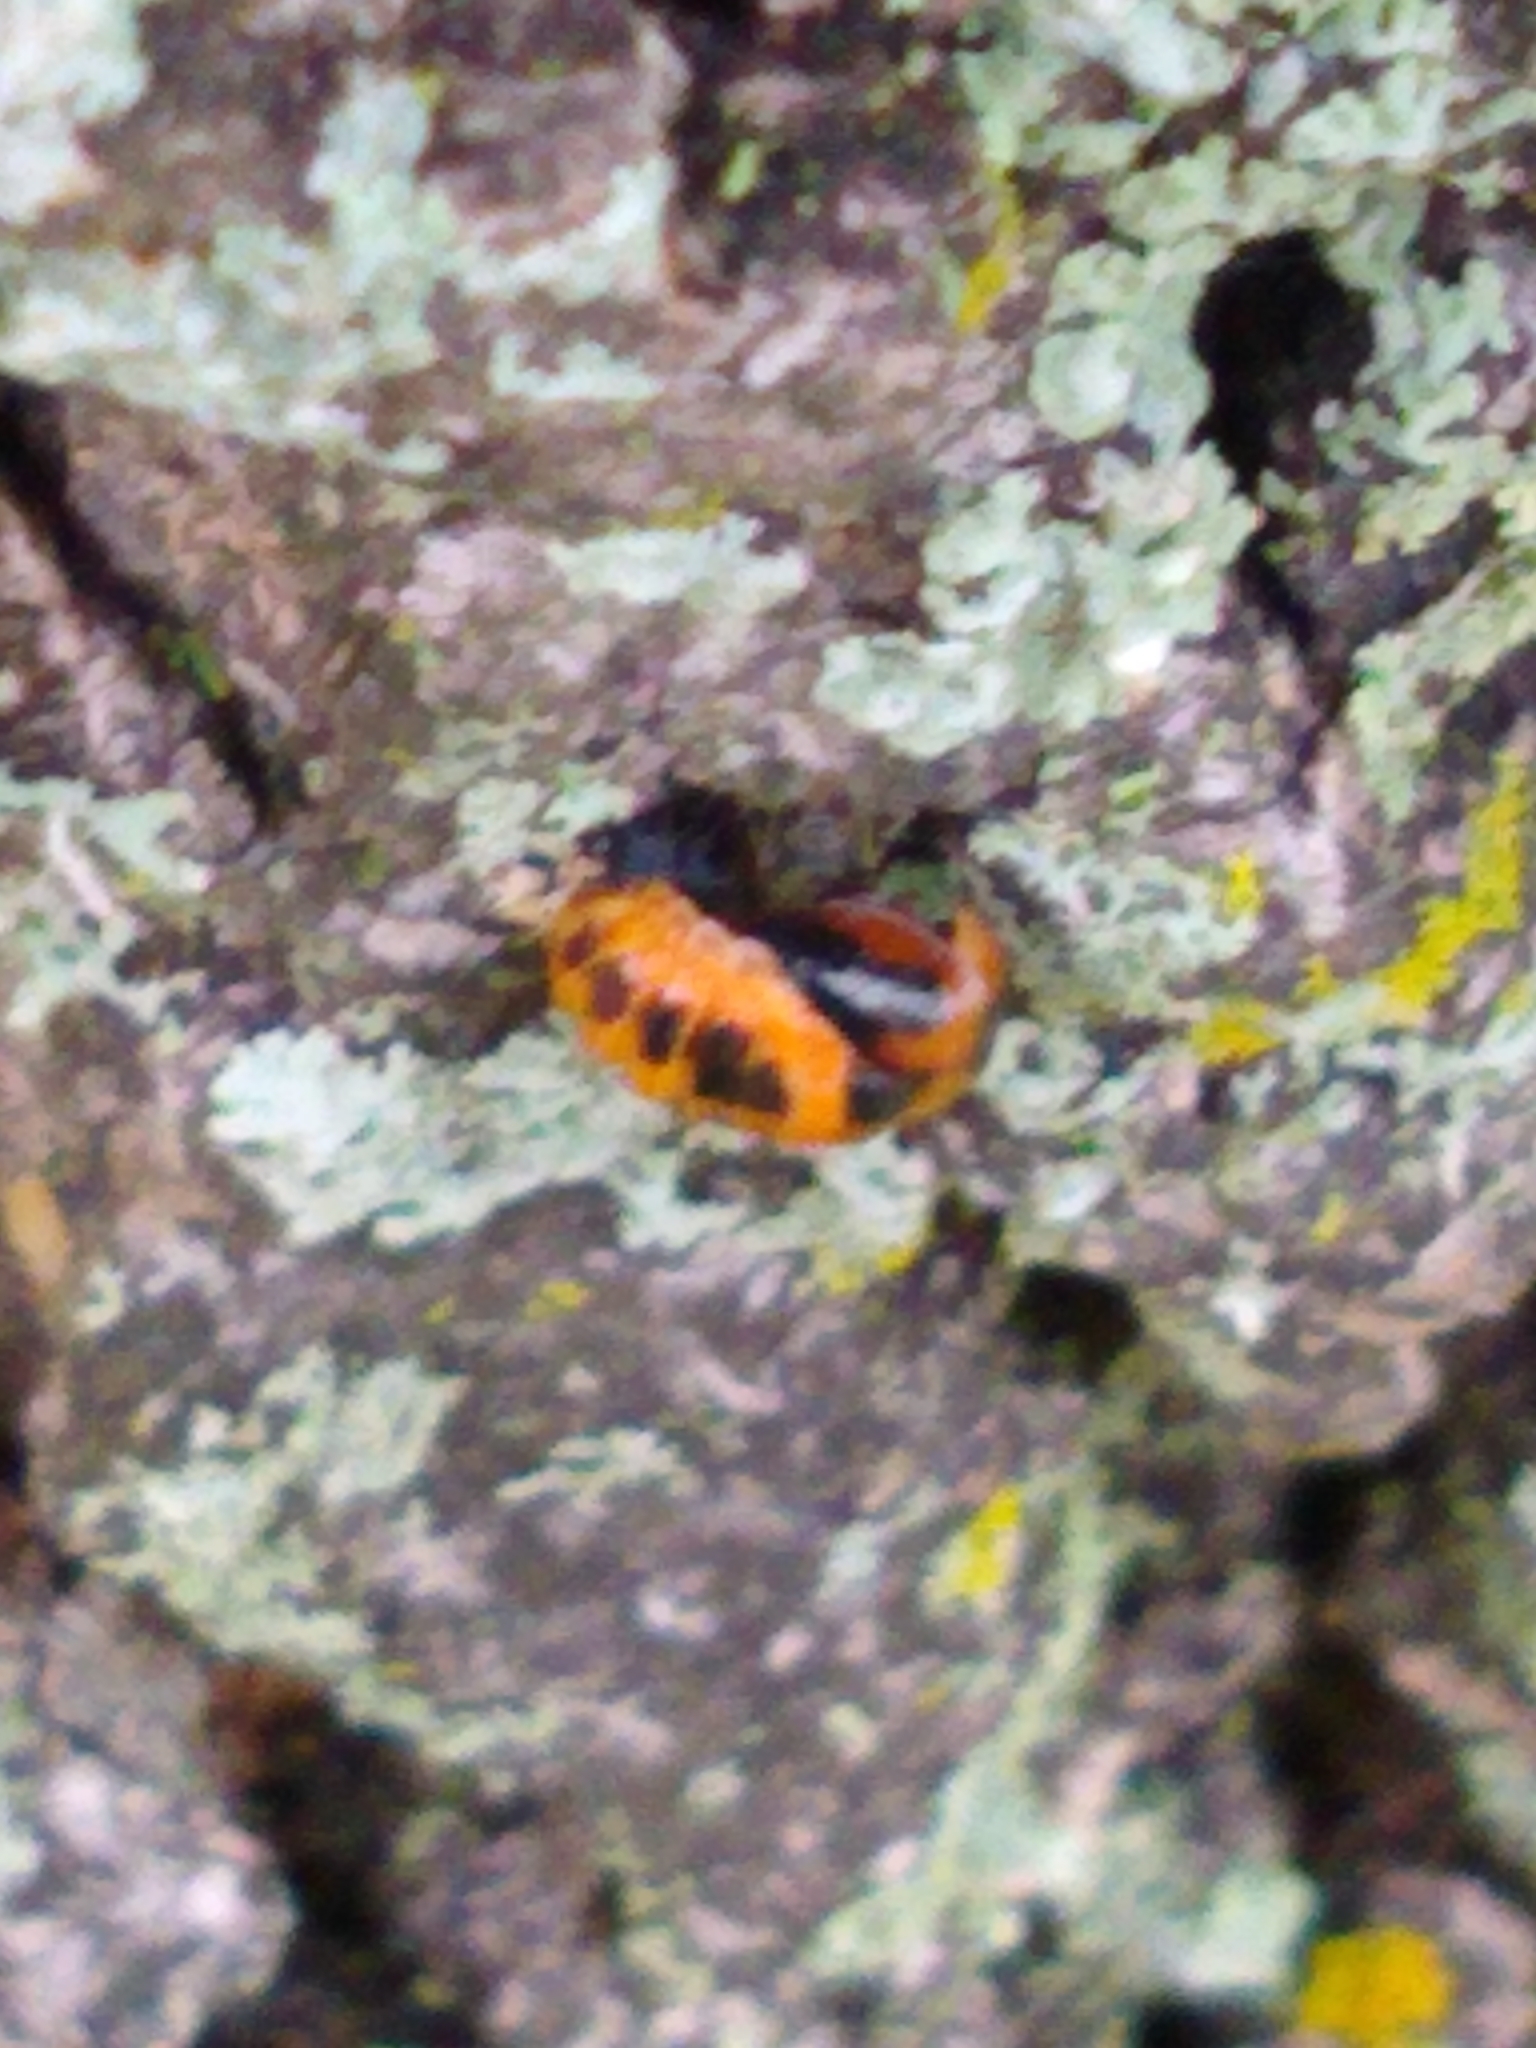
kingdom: Animalia
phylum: Arthropoda
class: Insecta
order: Coleoptera
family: Coccinellidae
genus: Harmonia
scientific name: Harmonia axyridis
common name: Harlequin ladybird
